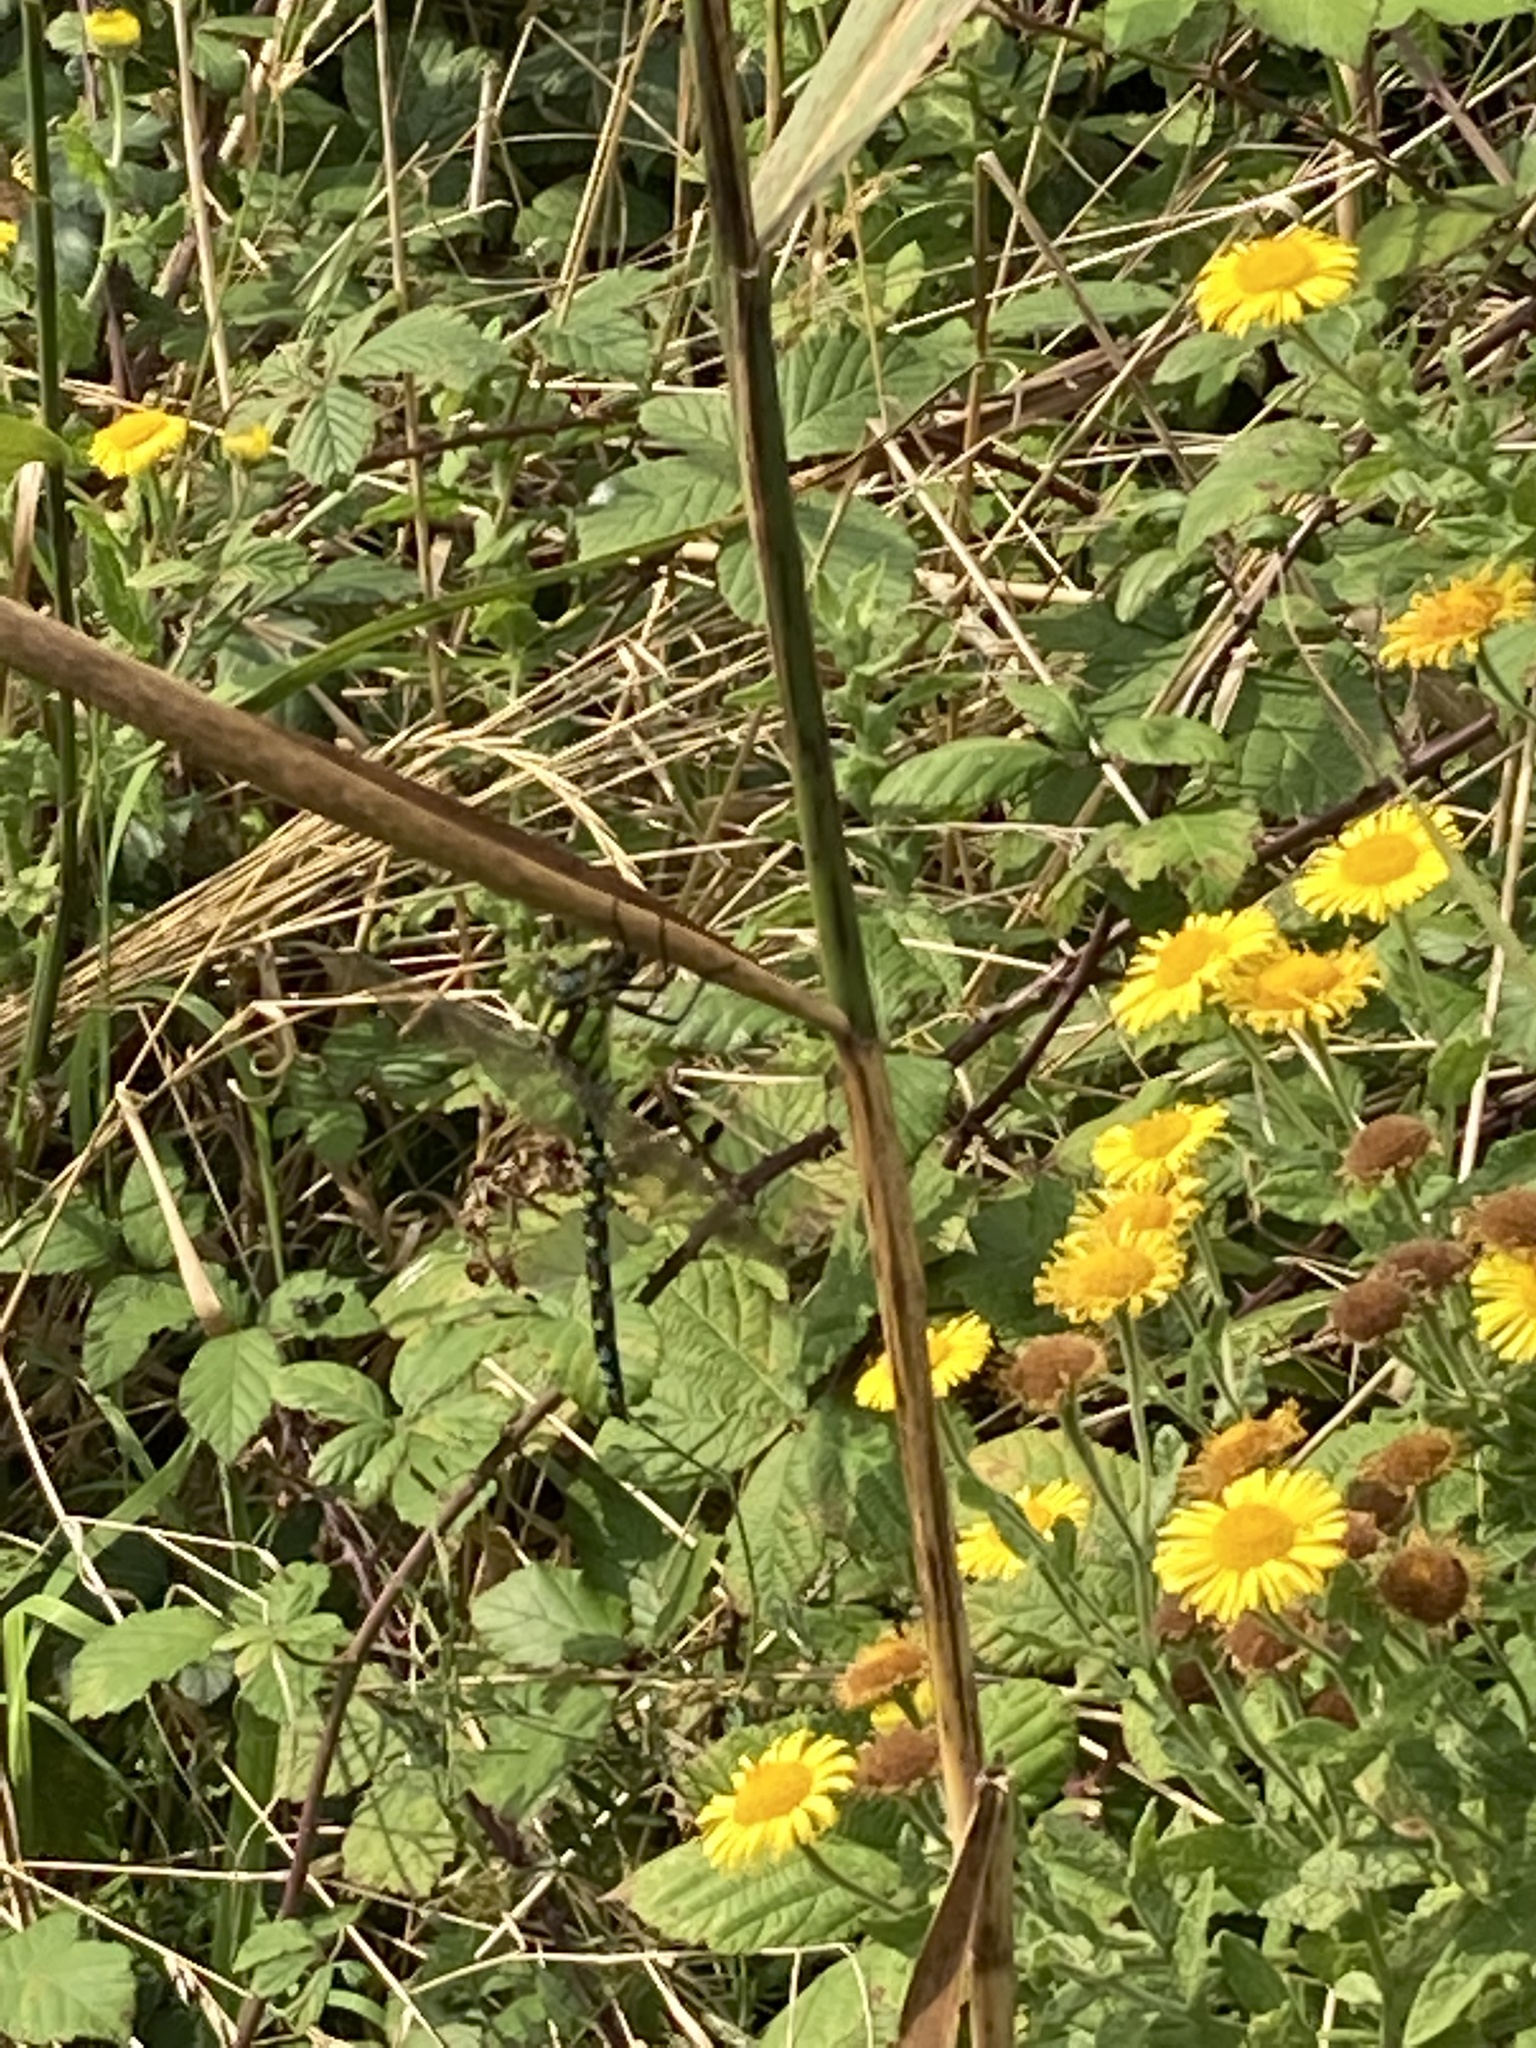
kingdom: Animalia
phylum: Arthropoda
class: Insecta
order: Odonata
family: Aeshnidae
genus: Aeshna
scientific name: Aeshna cyanea
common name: Southern hawker
